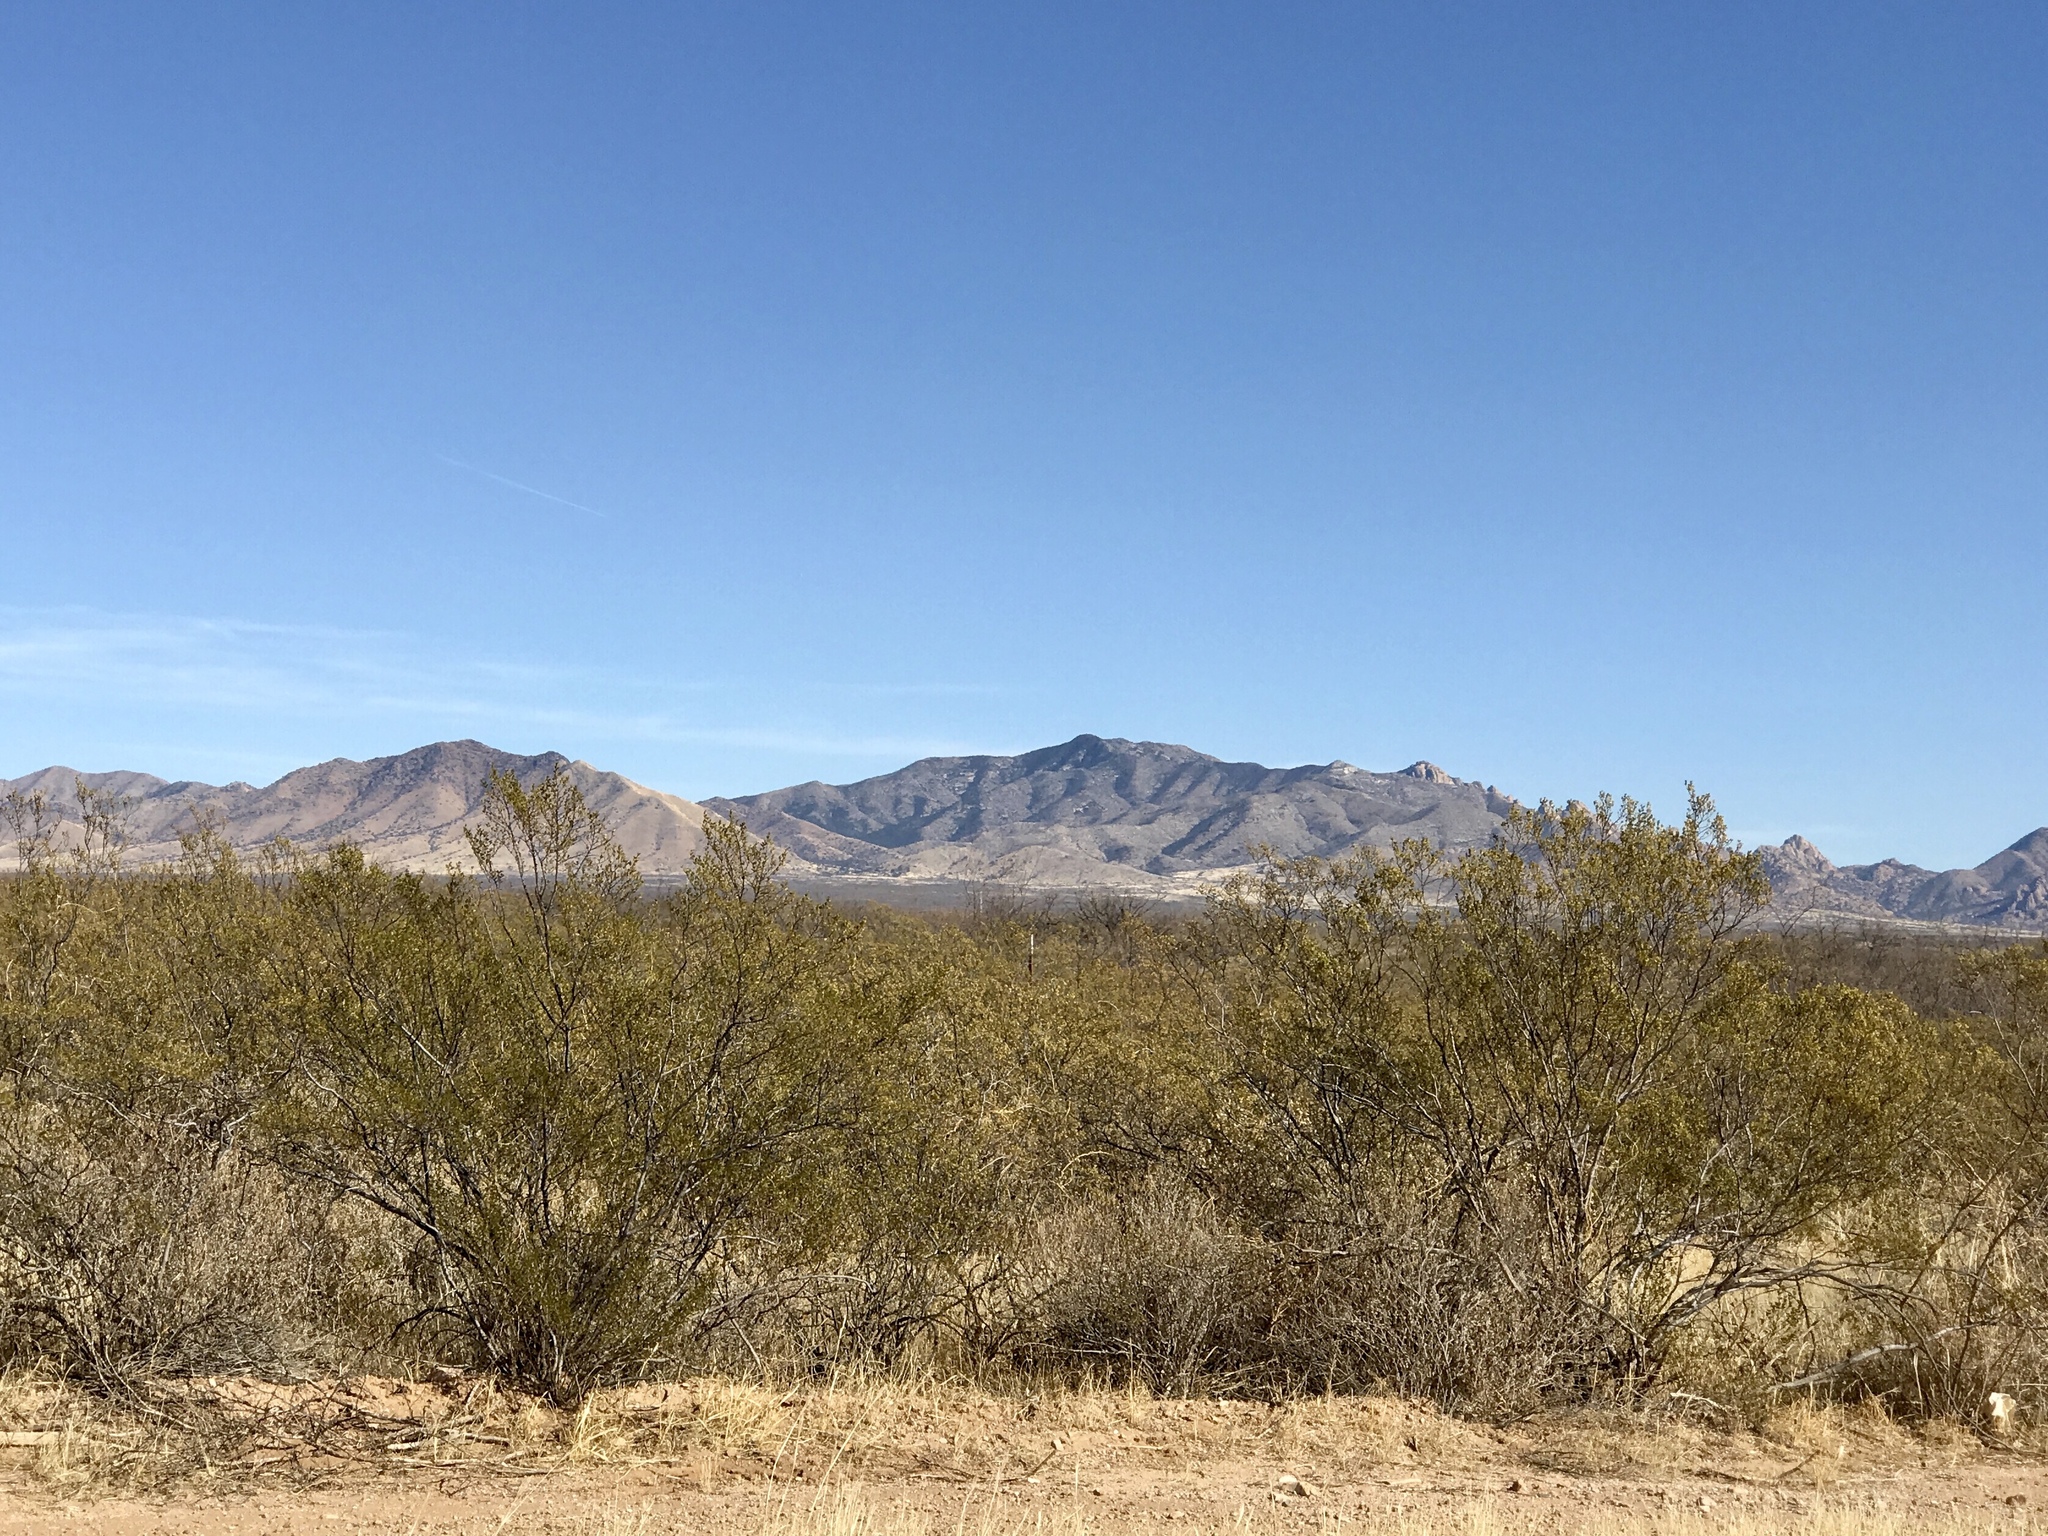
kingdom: Plantae
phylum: Tracheophyta
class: Magnoliopsida
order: Zygophyllales
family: Zygophyllaceae
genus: Larrea
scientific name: Larrea tridentata
